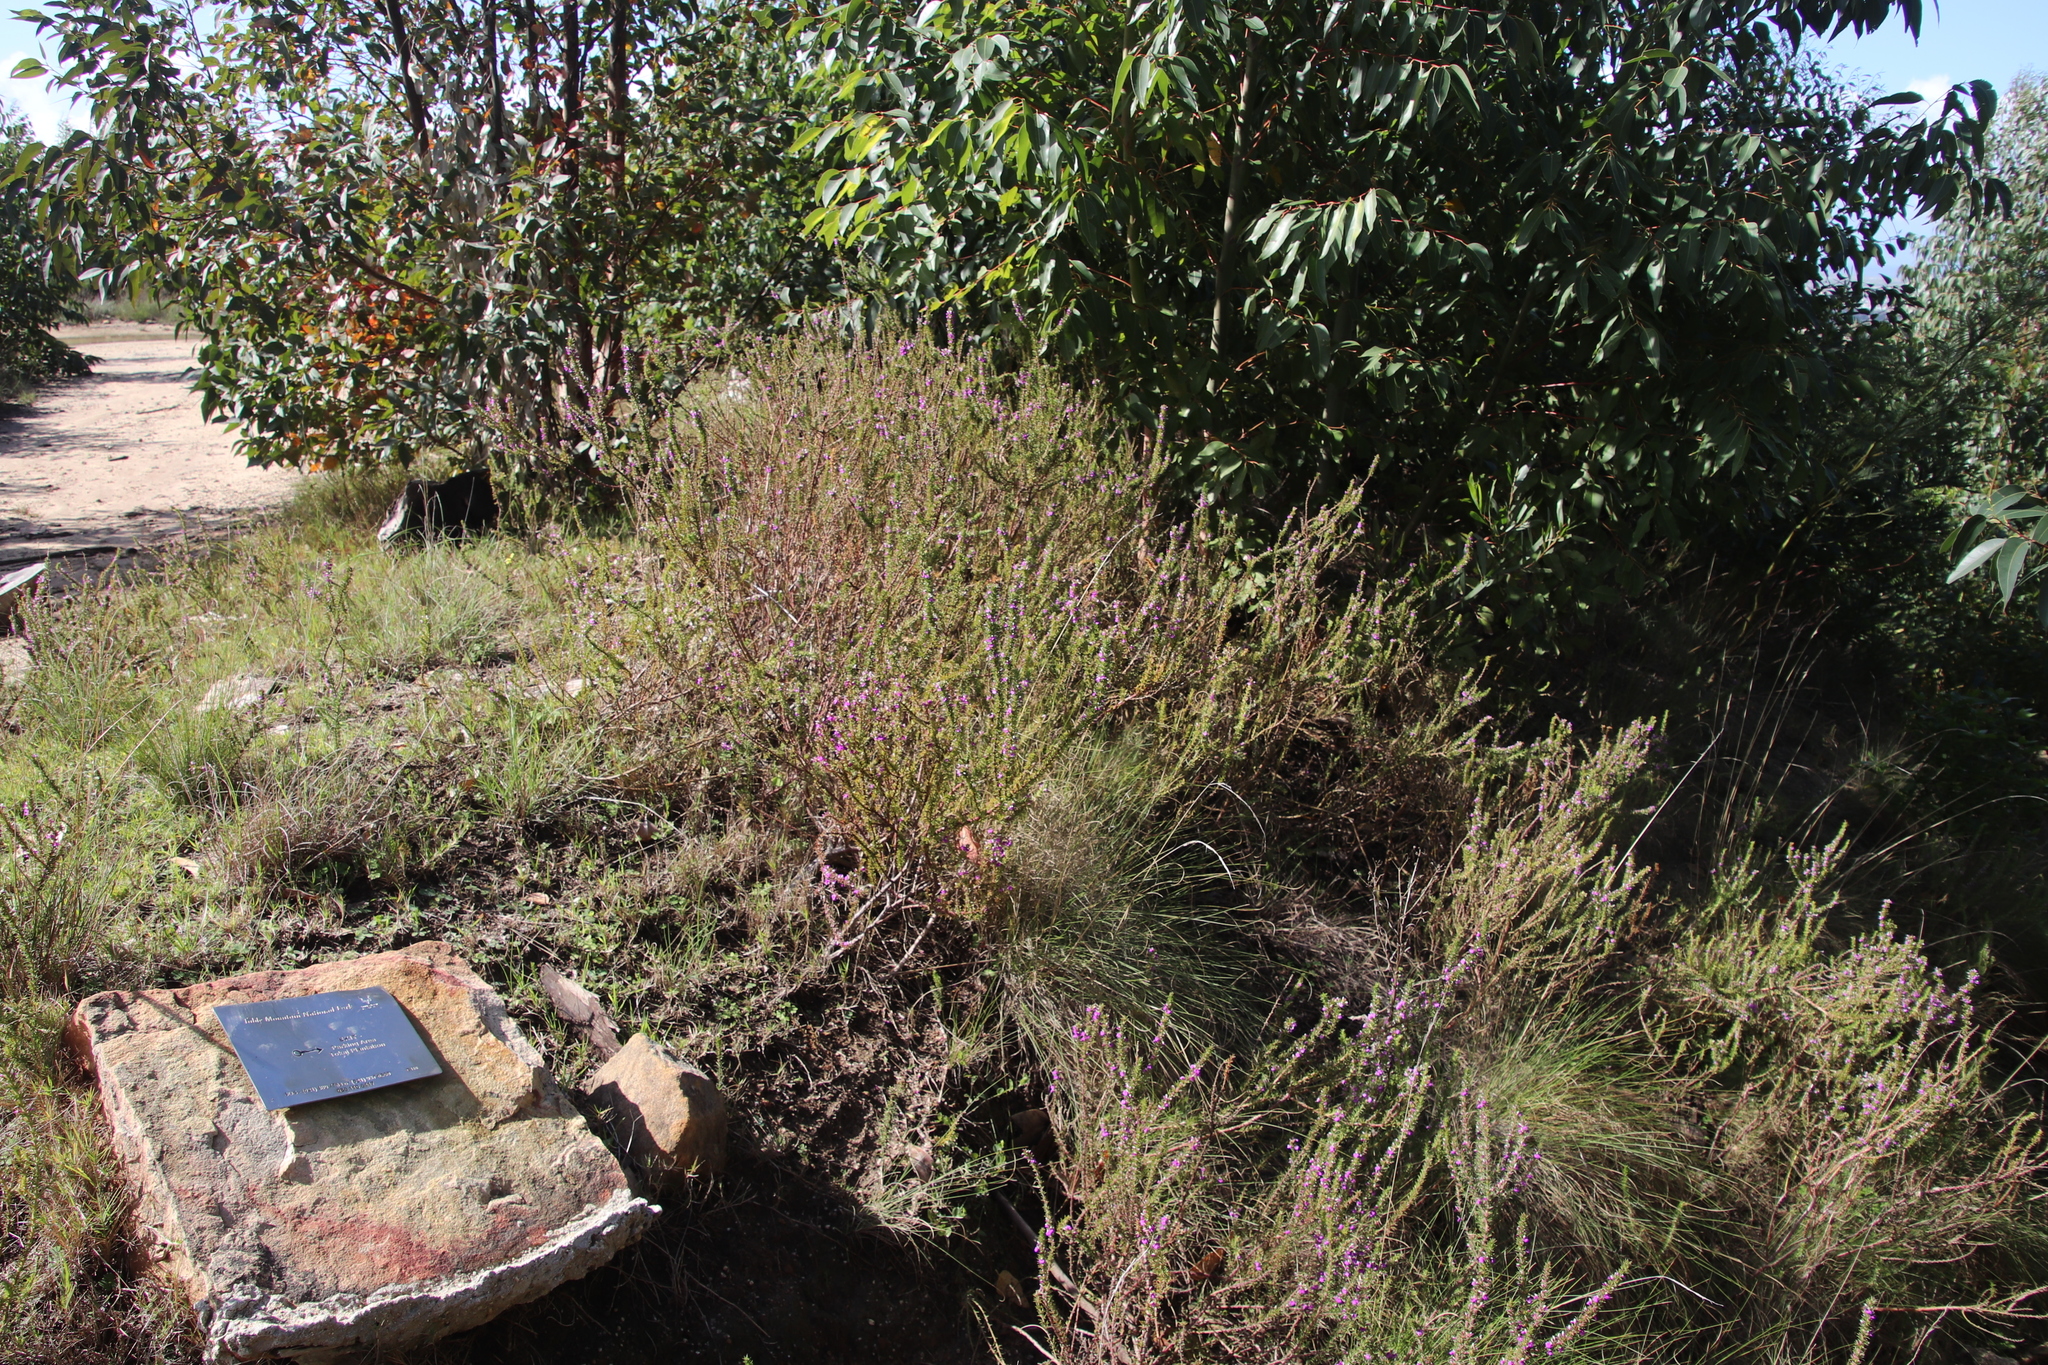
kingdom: Plantae
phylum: Tracheophyta
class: Magnoliopsida
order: Fabales
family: Polygalaceae
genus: Muraltia
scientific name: Muraltia heisteria
